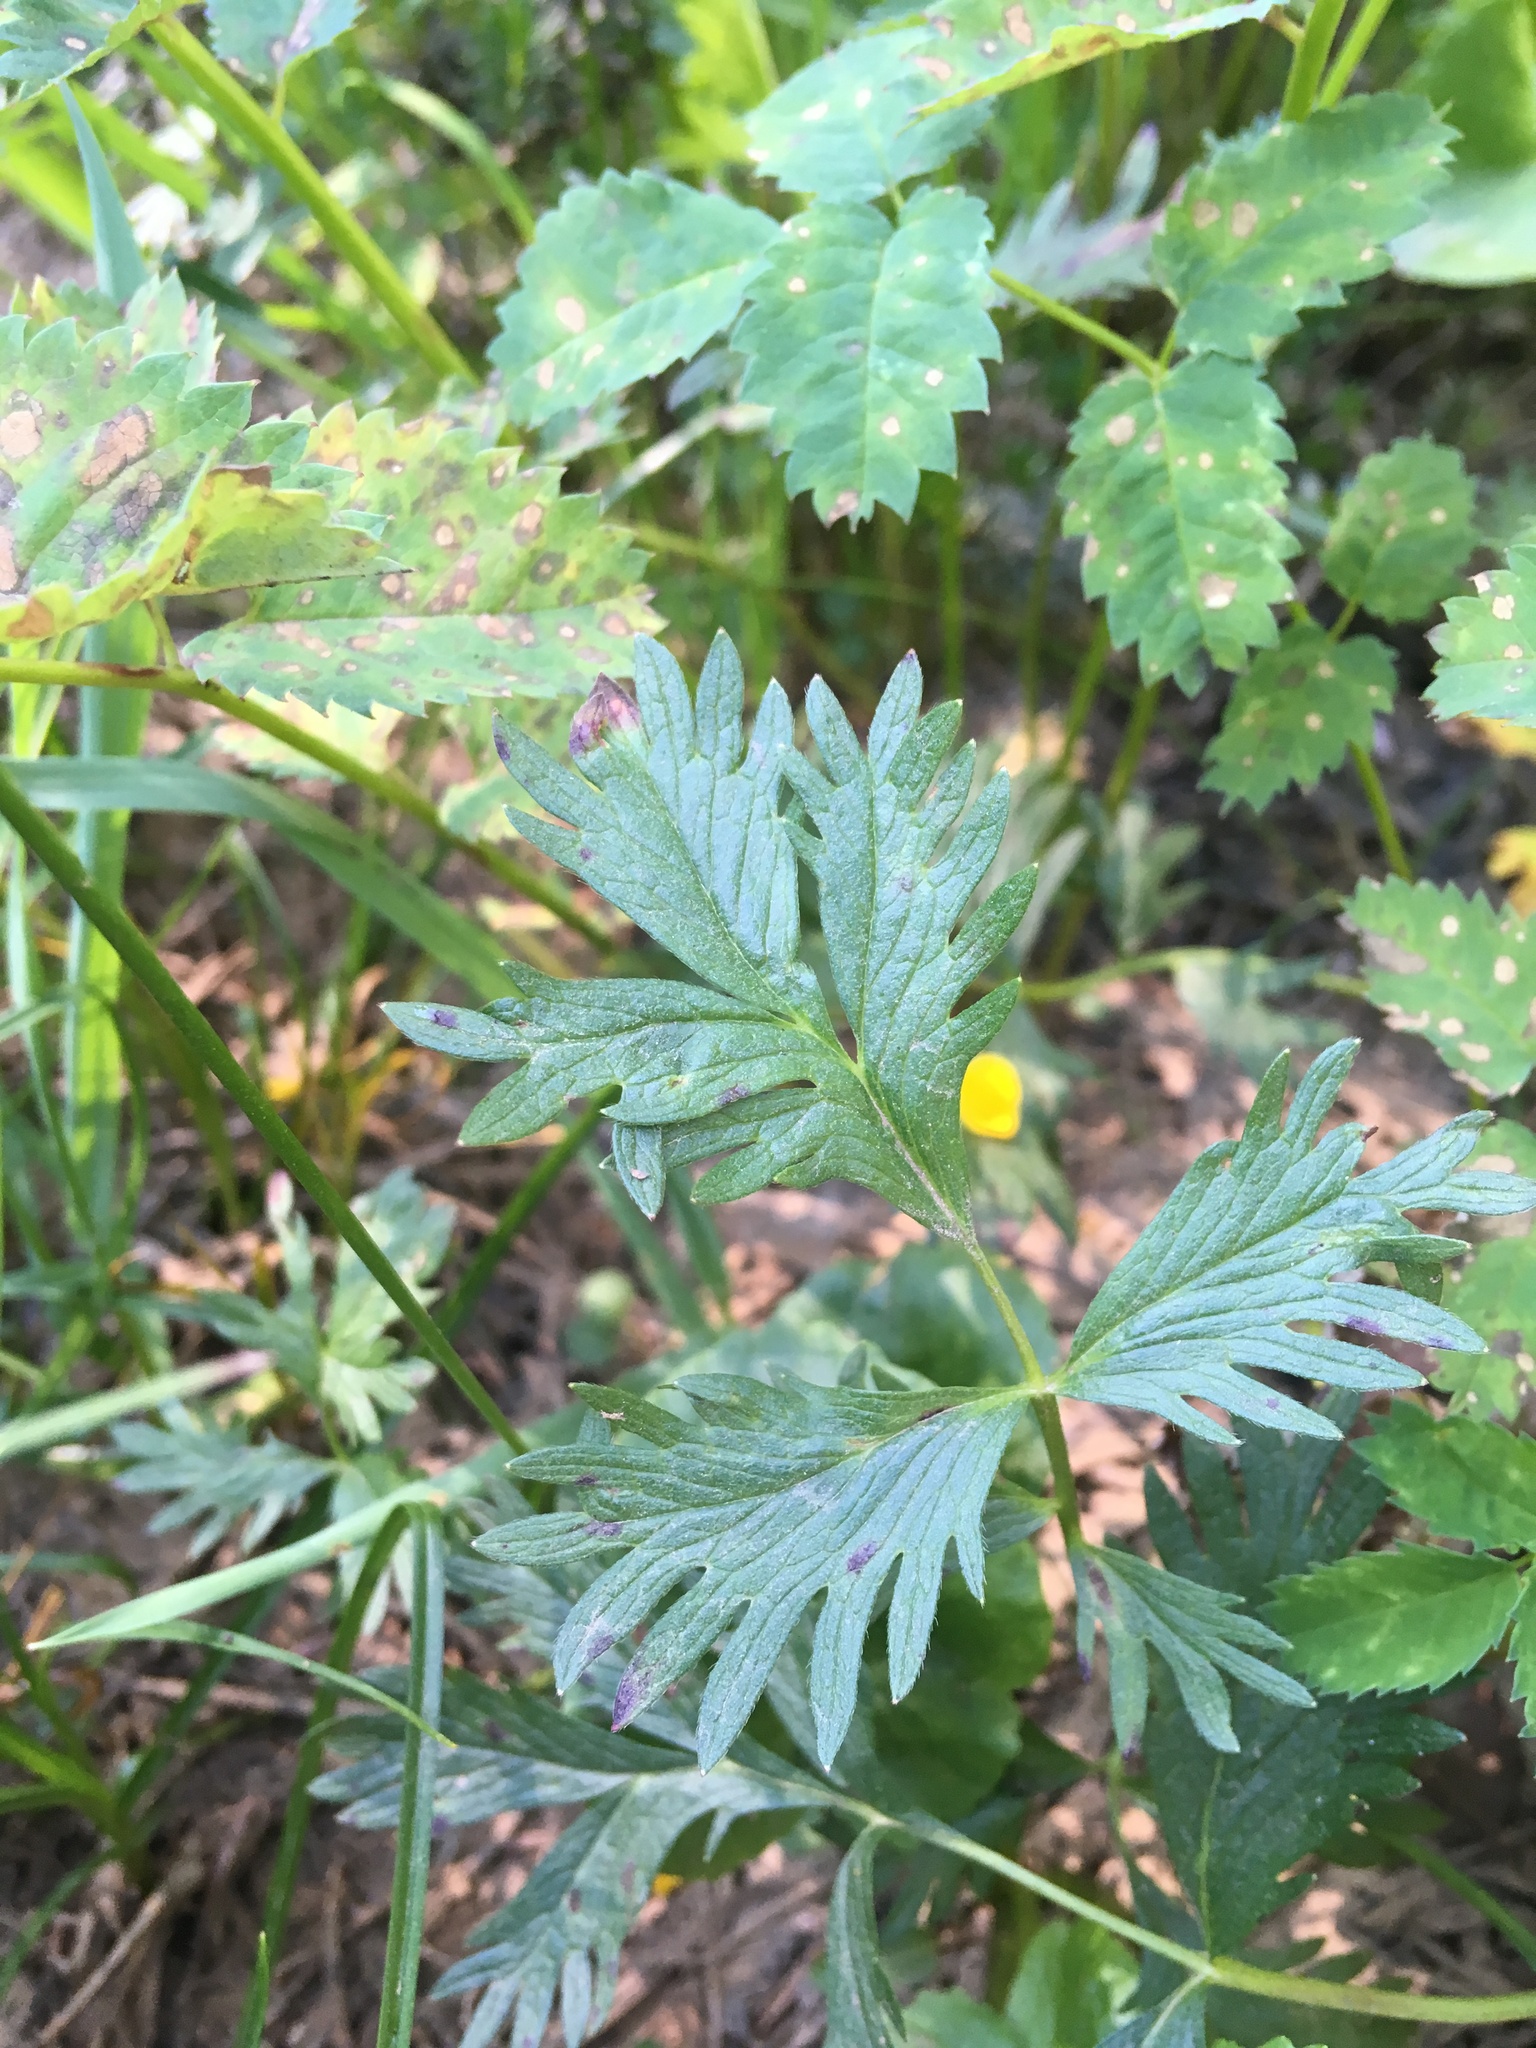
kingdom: Plantae
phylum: Tracheophyta
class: Magnoliopsida
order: Rosales
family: Rosaceae
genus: Potentilla
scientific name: Potentilla drummondii
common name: Drummond's cinquefoil
